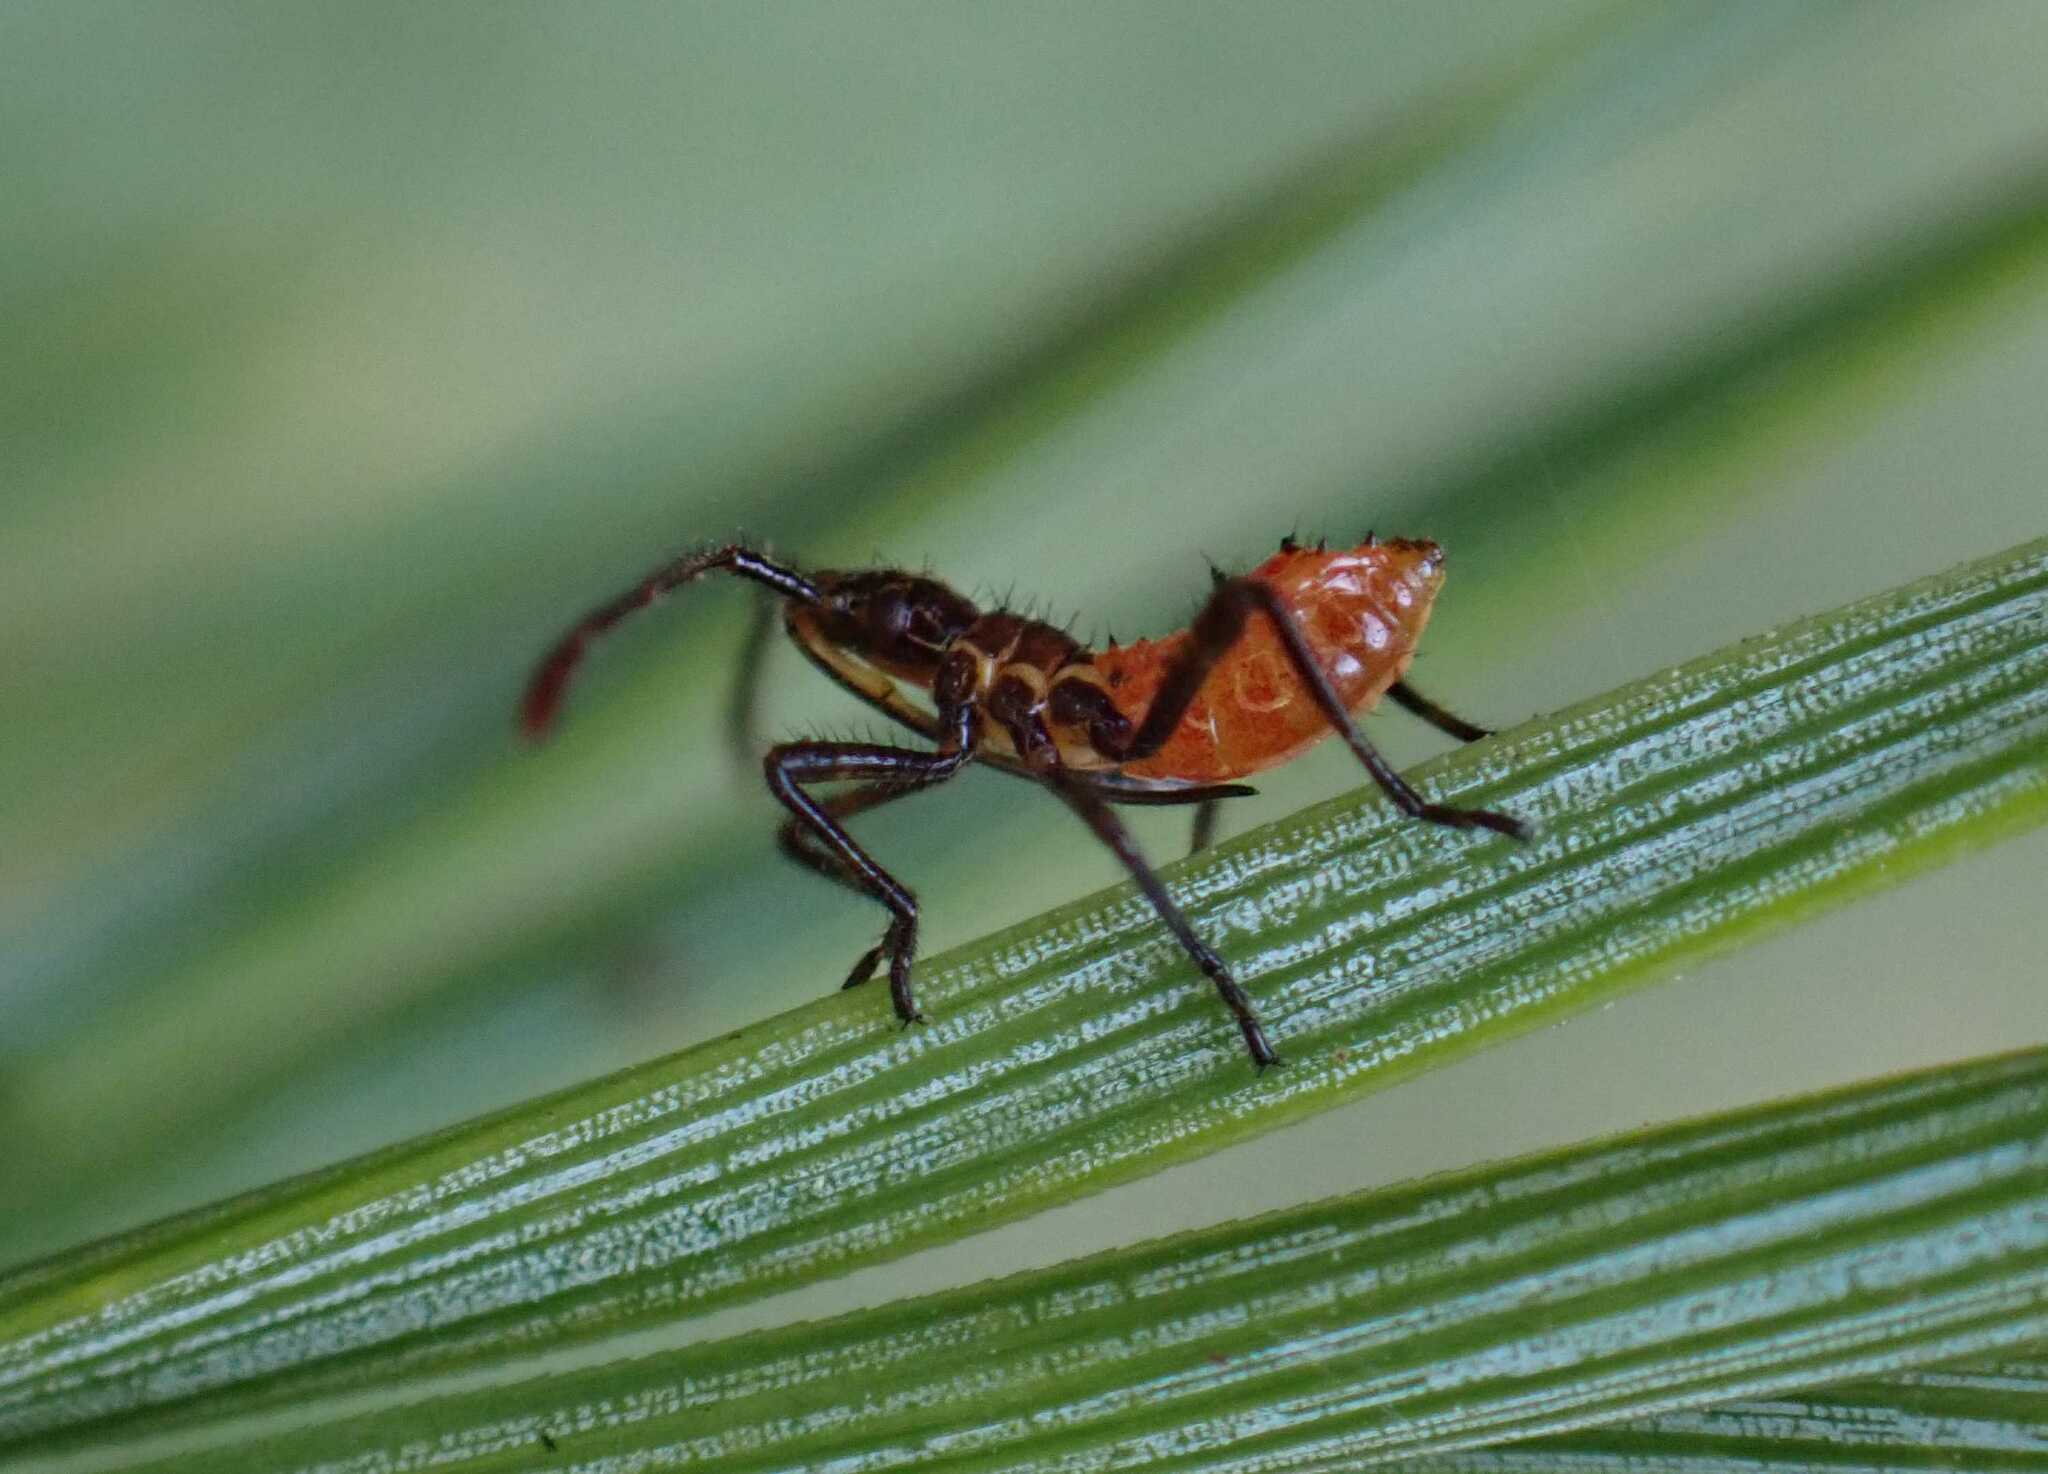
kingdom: Animalia
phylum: Arthropoda
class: Insecta
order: Hemiptera
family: Coreidae
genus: Leptoglossus
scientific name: Leptoglossus occidentalis
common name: Western conifer-seed bug
